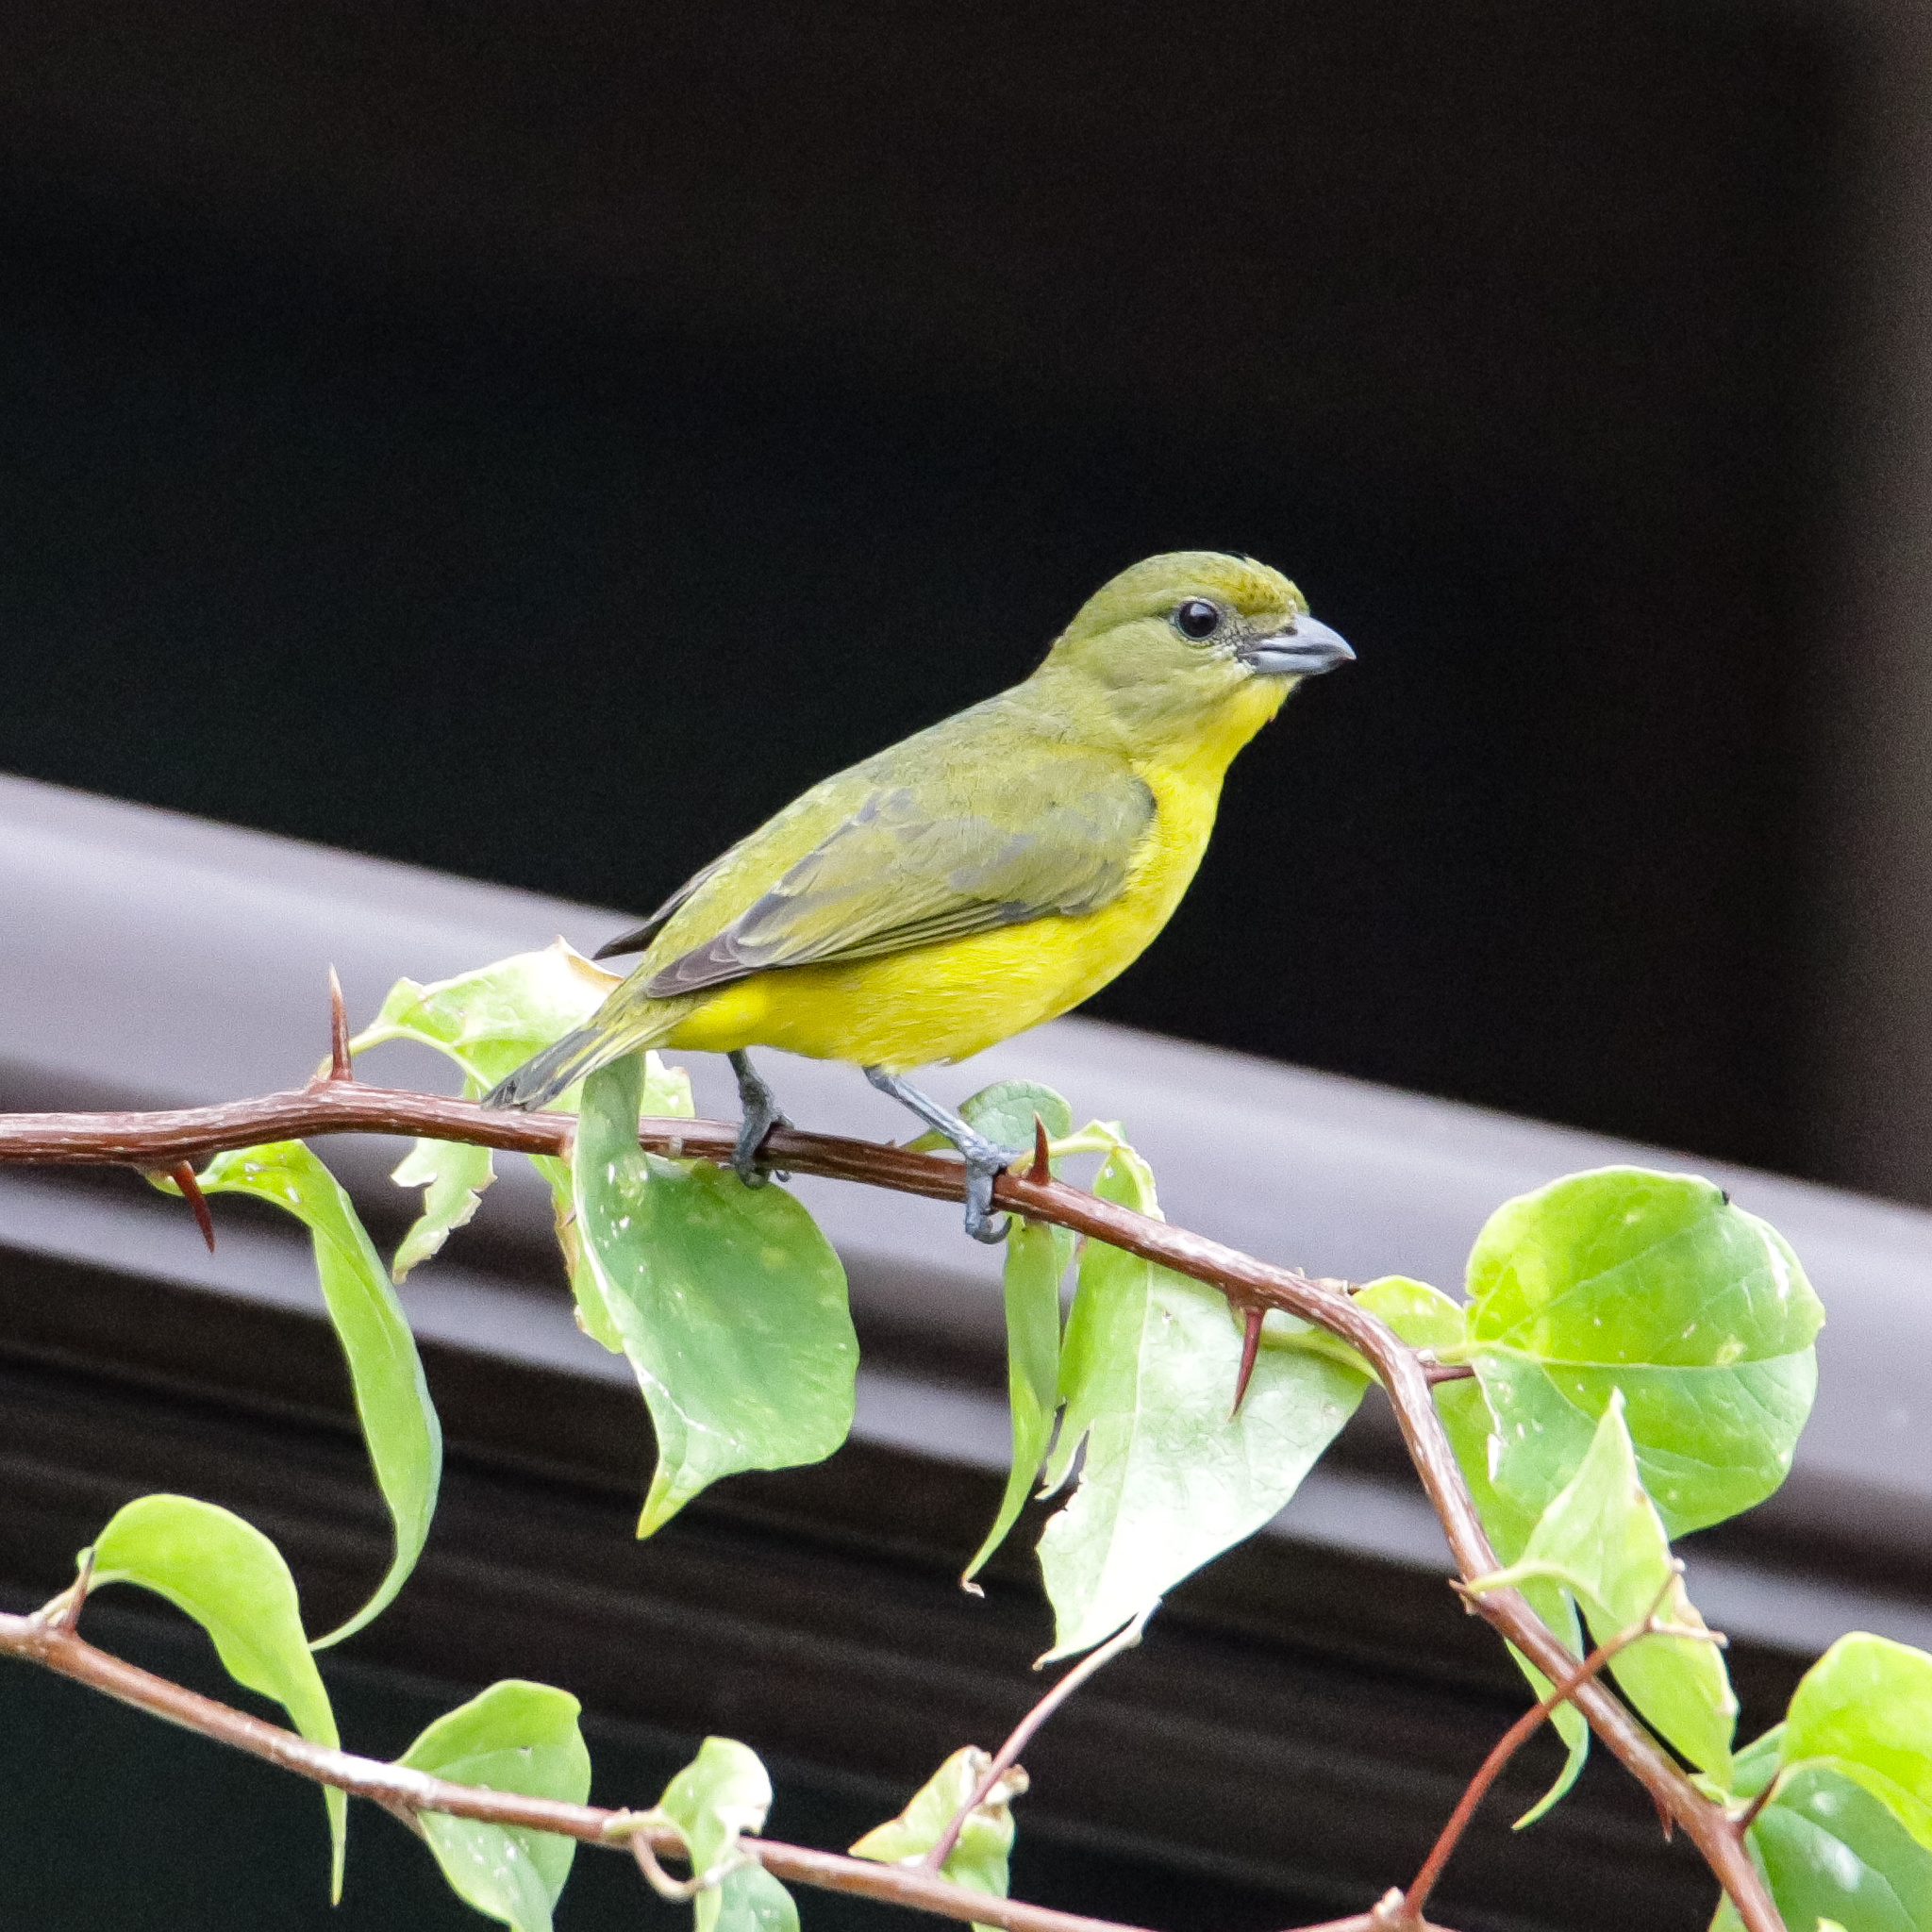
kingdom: Animalia
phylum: Chordata
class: Aves
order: Passeriformes
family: Fringillidae
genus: Euphonia
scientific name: Euphonia laniirostris
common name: Thick-billed euphonia
